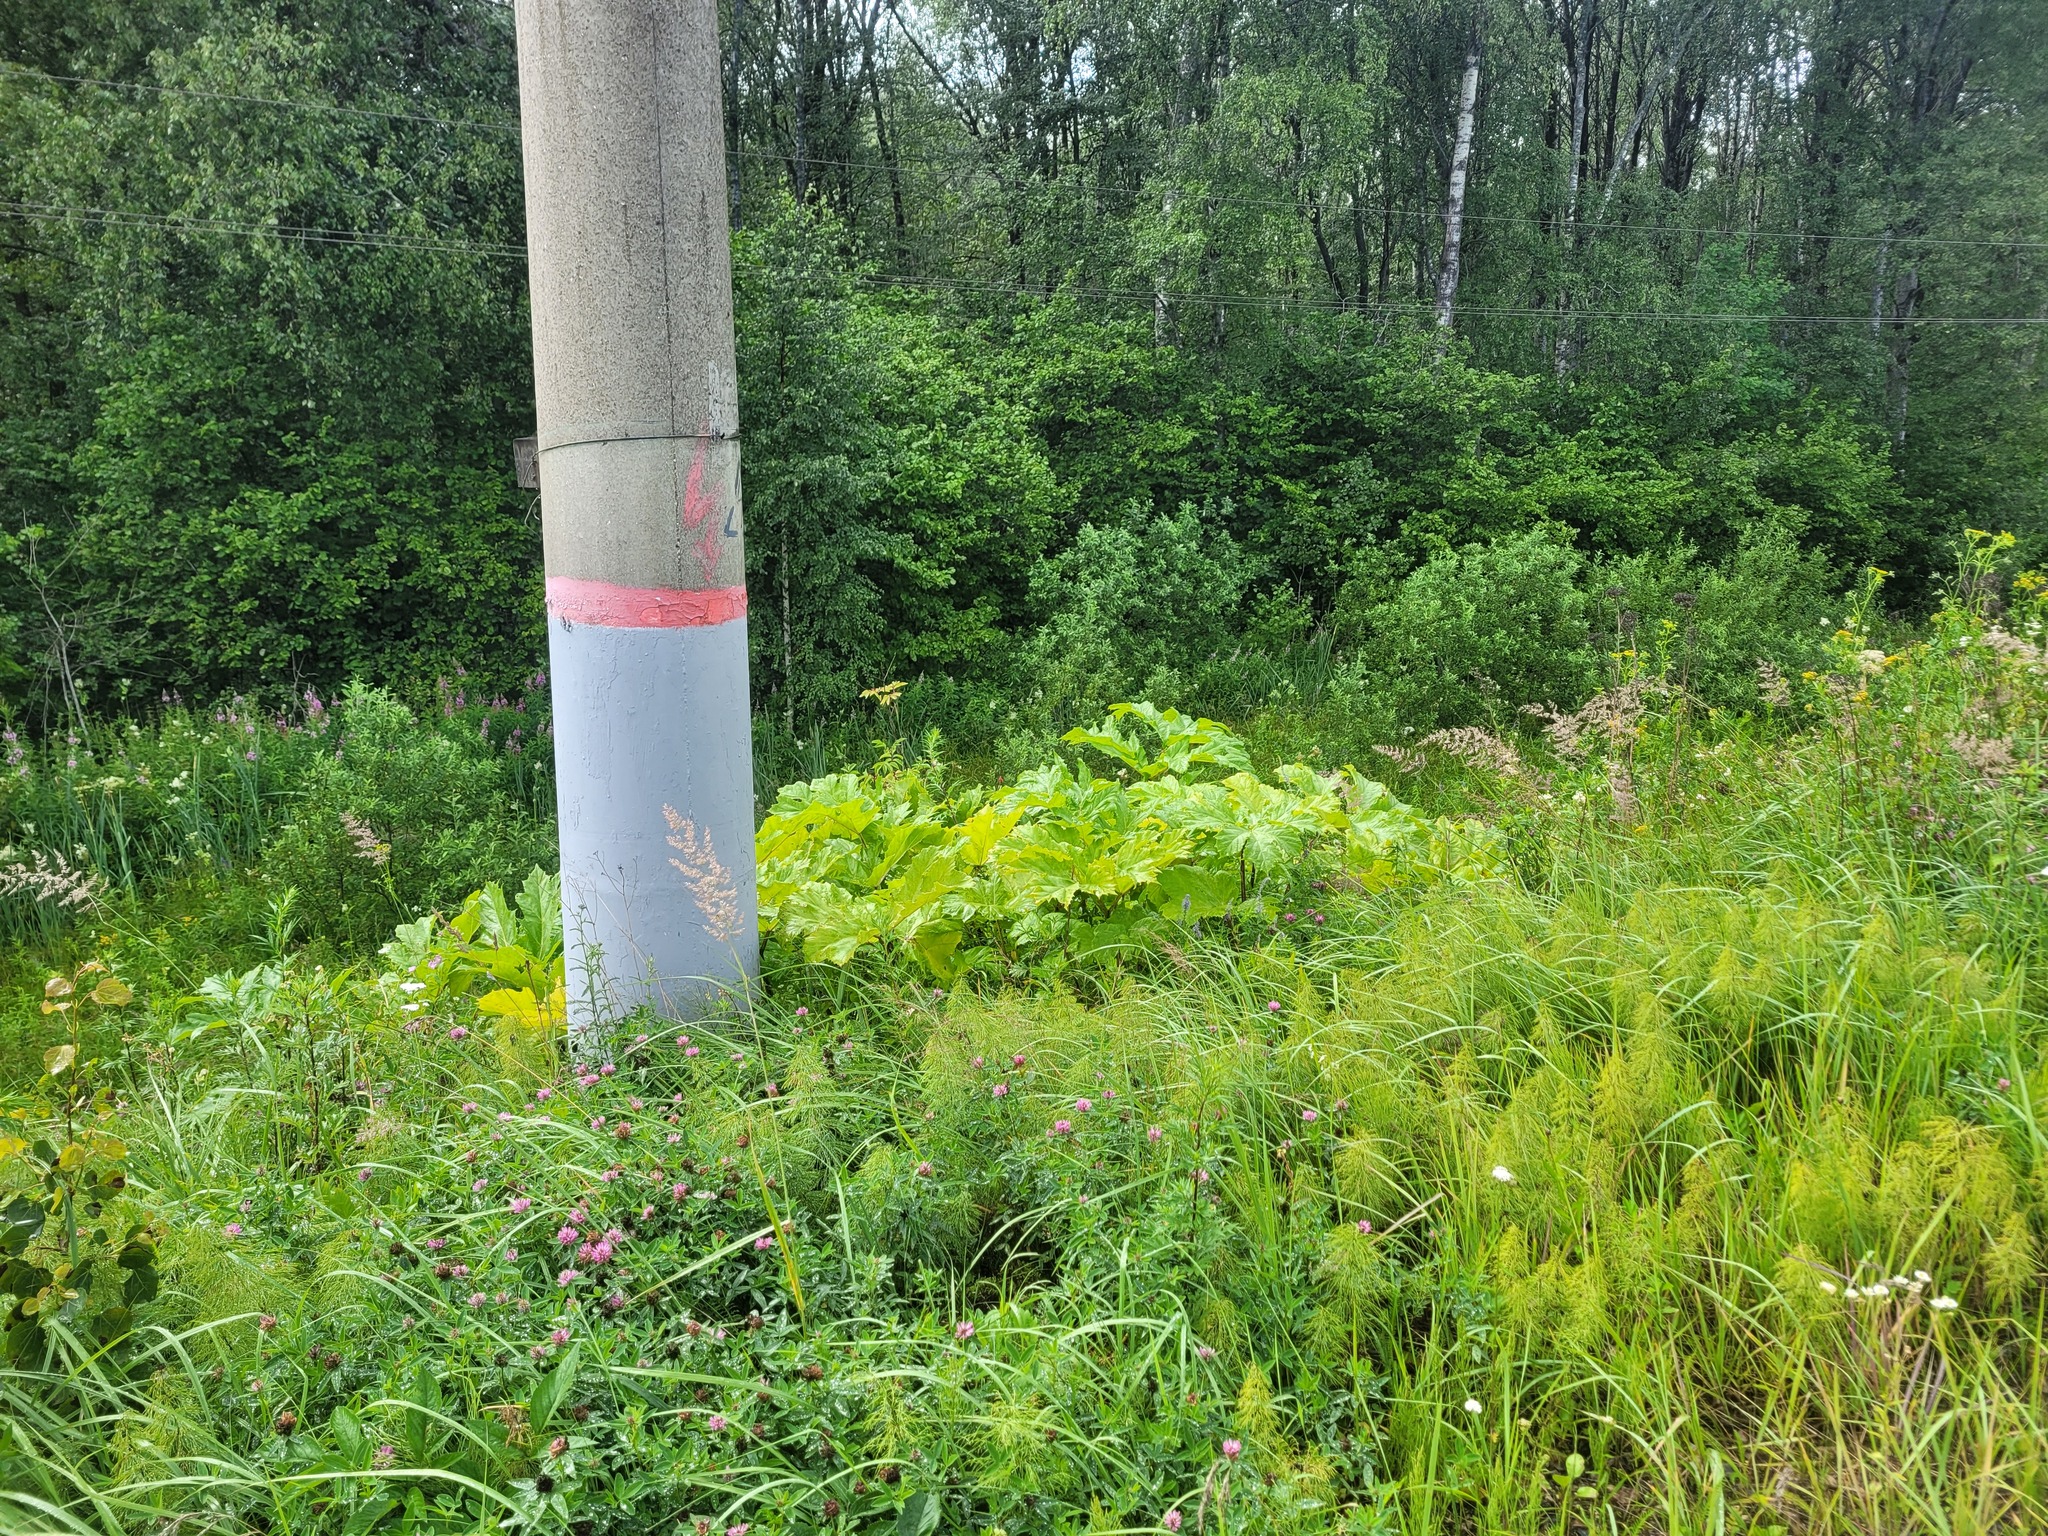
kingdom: Plantae
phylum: Tracheophyta
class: Magnoliopsida
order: Apiales
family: Apiaceae
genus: Heracleum
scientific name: Heracleum sosnowskyi
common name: Sosnowsky's hogweed
